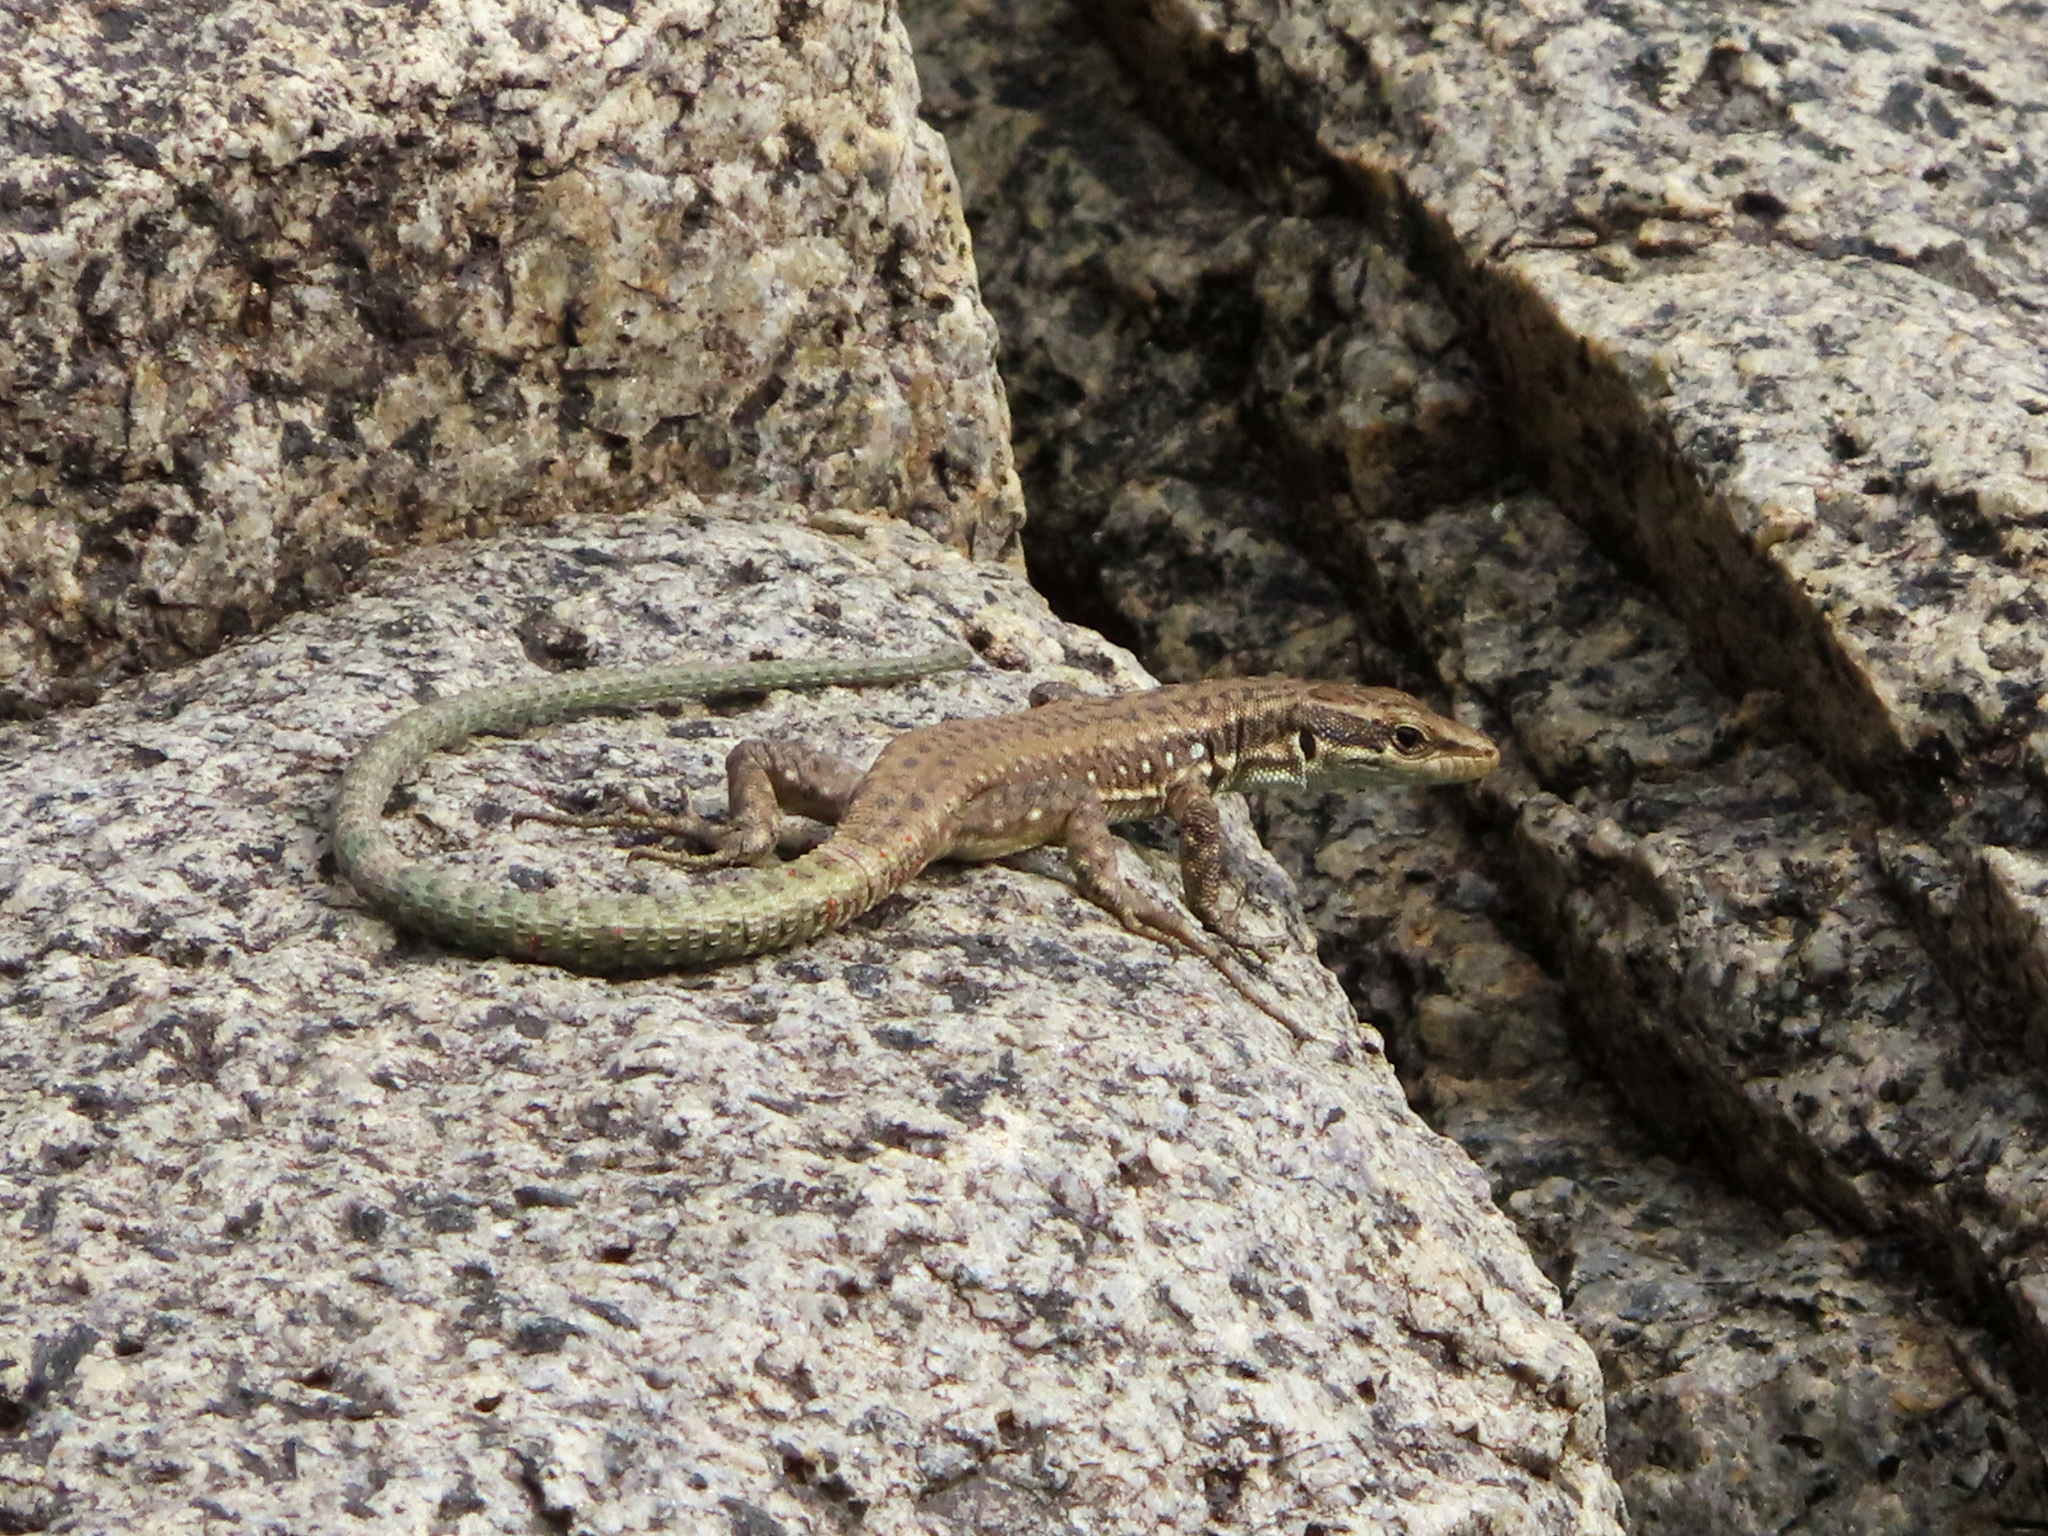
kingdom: Animalia
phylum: Chordata
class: Squamata
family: Lacertidae
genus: Darevskia
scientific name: Darevskia raddei
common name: Radde's lizard
